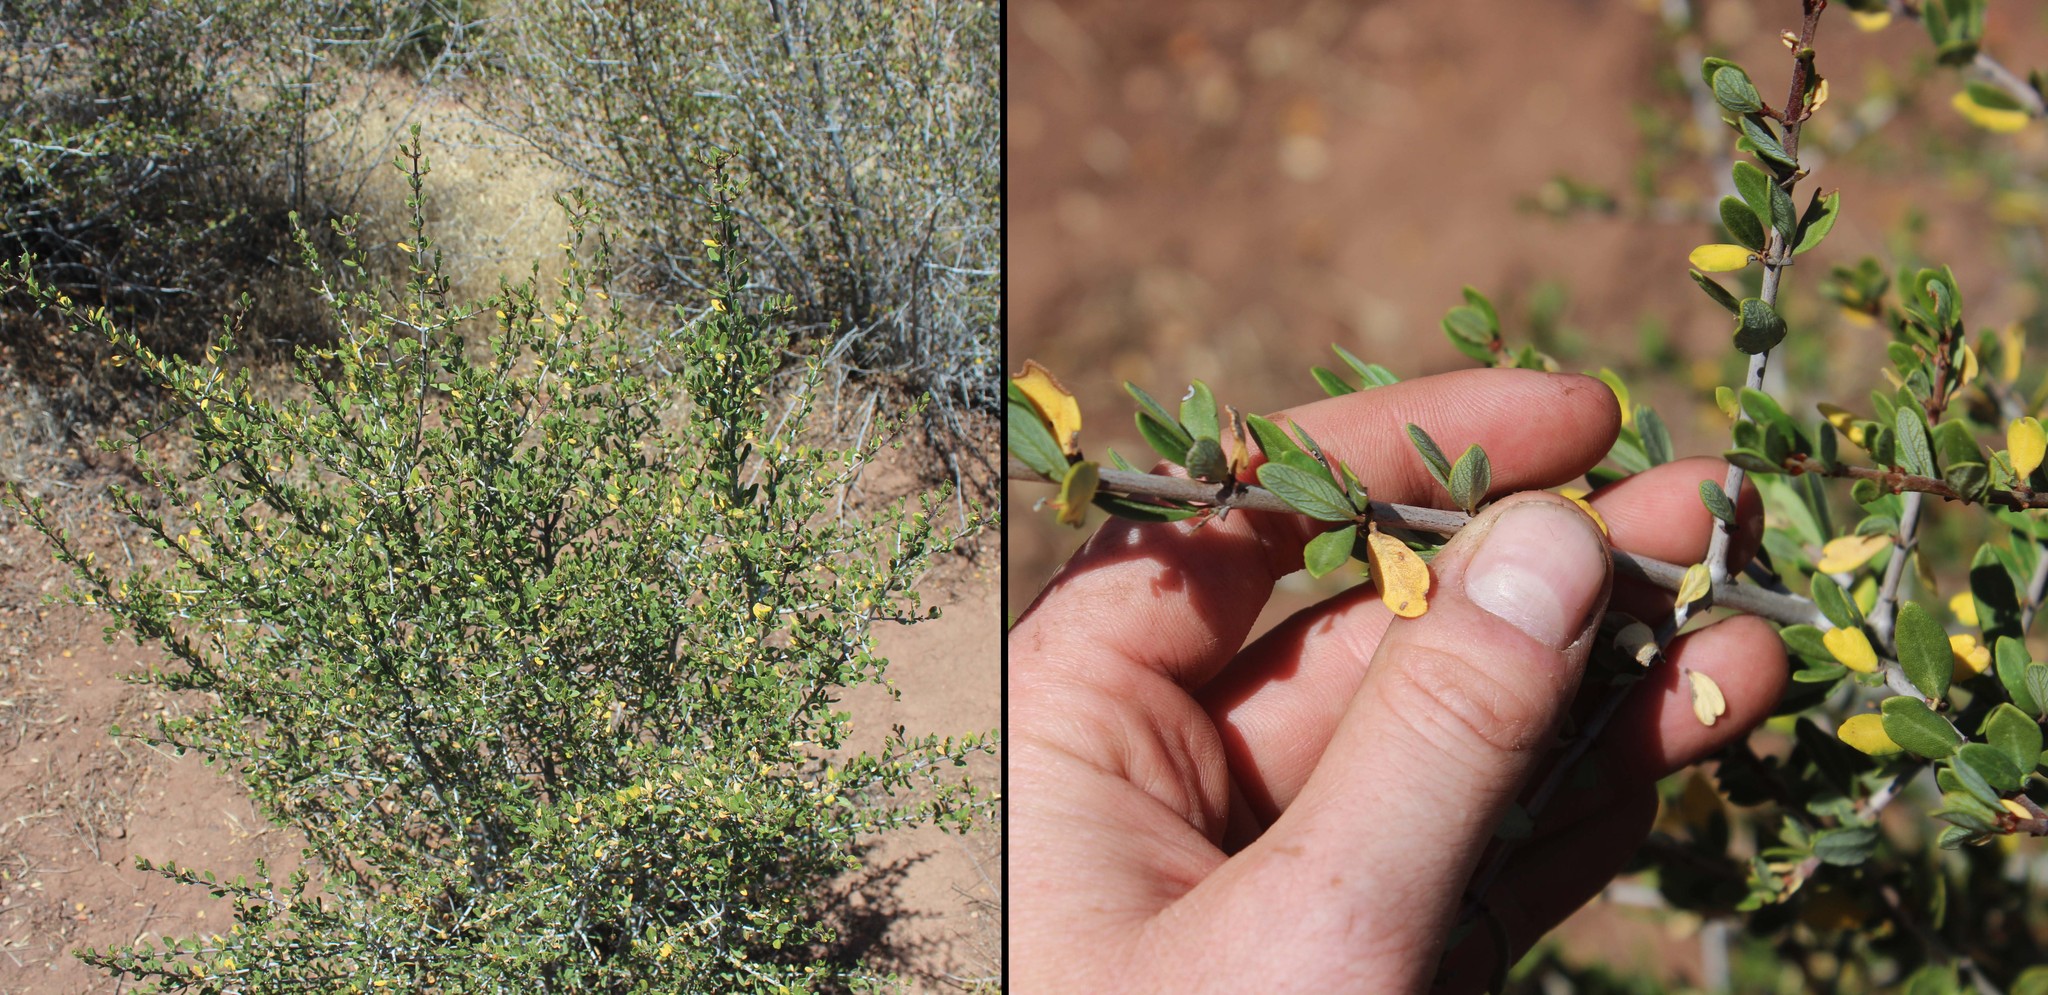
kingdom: Plantae
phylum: Tracheophyta
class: Magnoliopsida
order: Rosales
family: Rhamnaceae
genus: Ceanothus
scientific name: Ceanothus cuneatus
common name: Cuneate ceanothus
